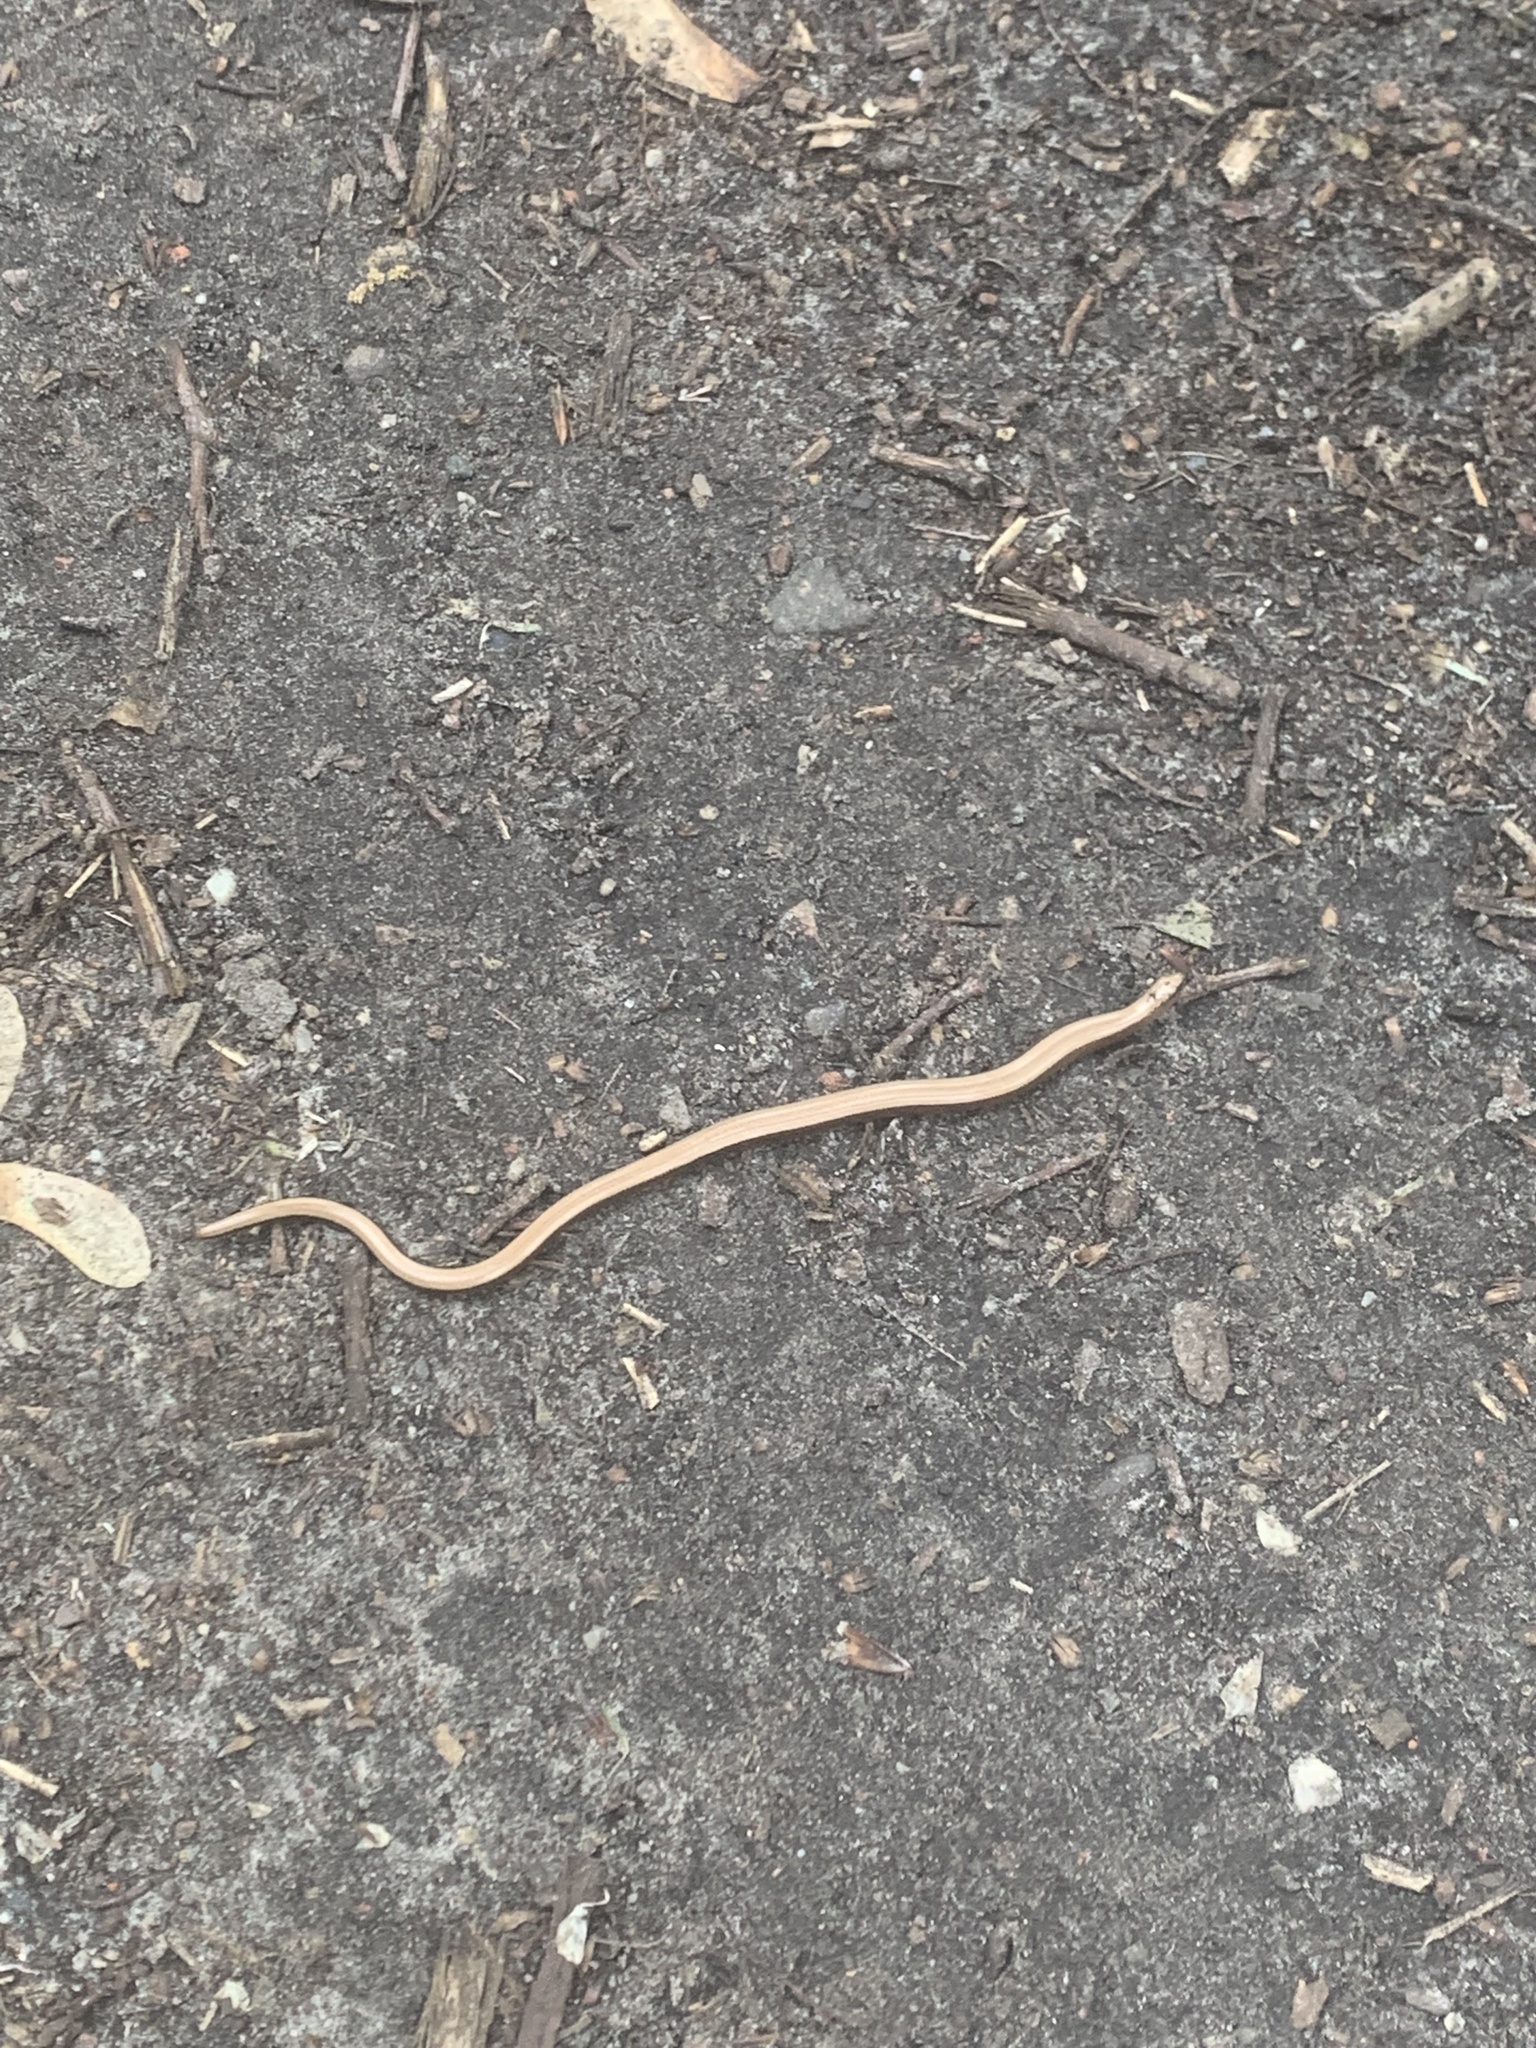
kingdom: Animalia
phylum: Chordata
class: Squamata
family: Anguidae
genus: Anguis
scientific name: Anguis fragilis
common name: Slow worm
